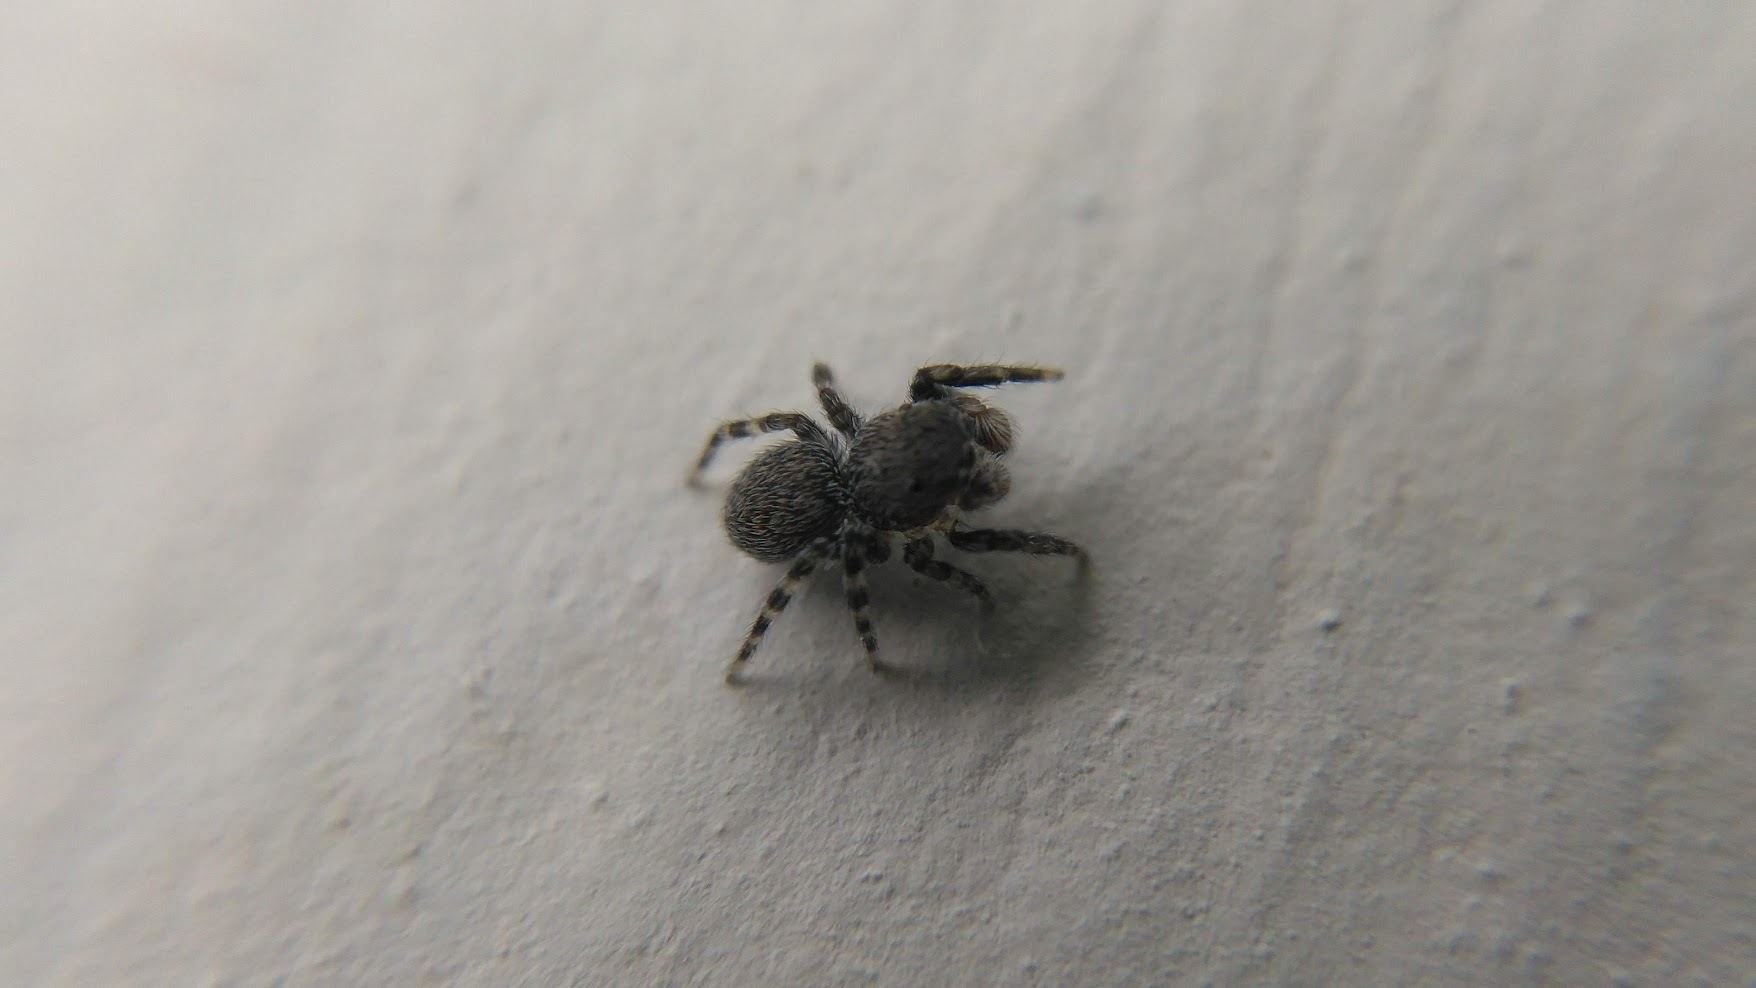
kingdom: Animalia
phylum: Arthropoda
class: Arachnida
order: Araneae
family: Salticidae
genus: Talavera
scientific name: Talavera minuta
